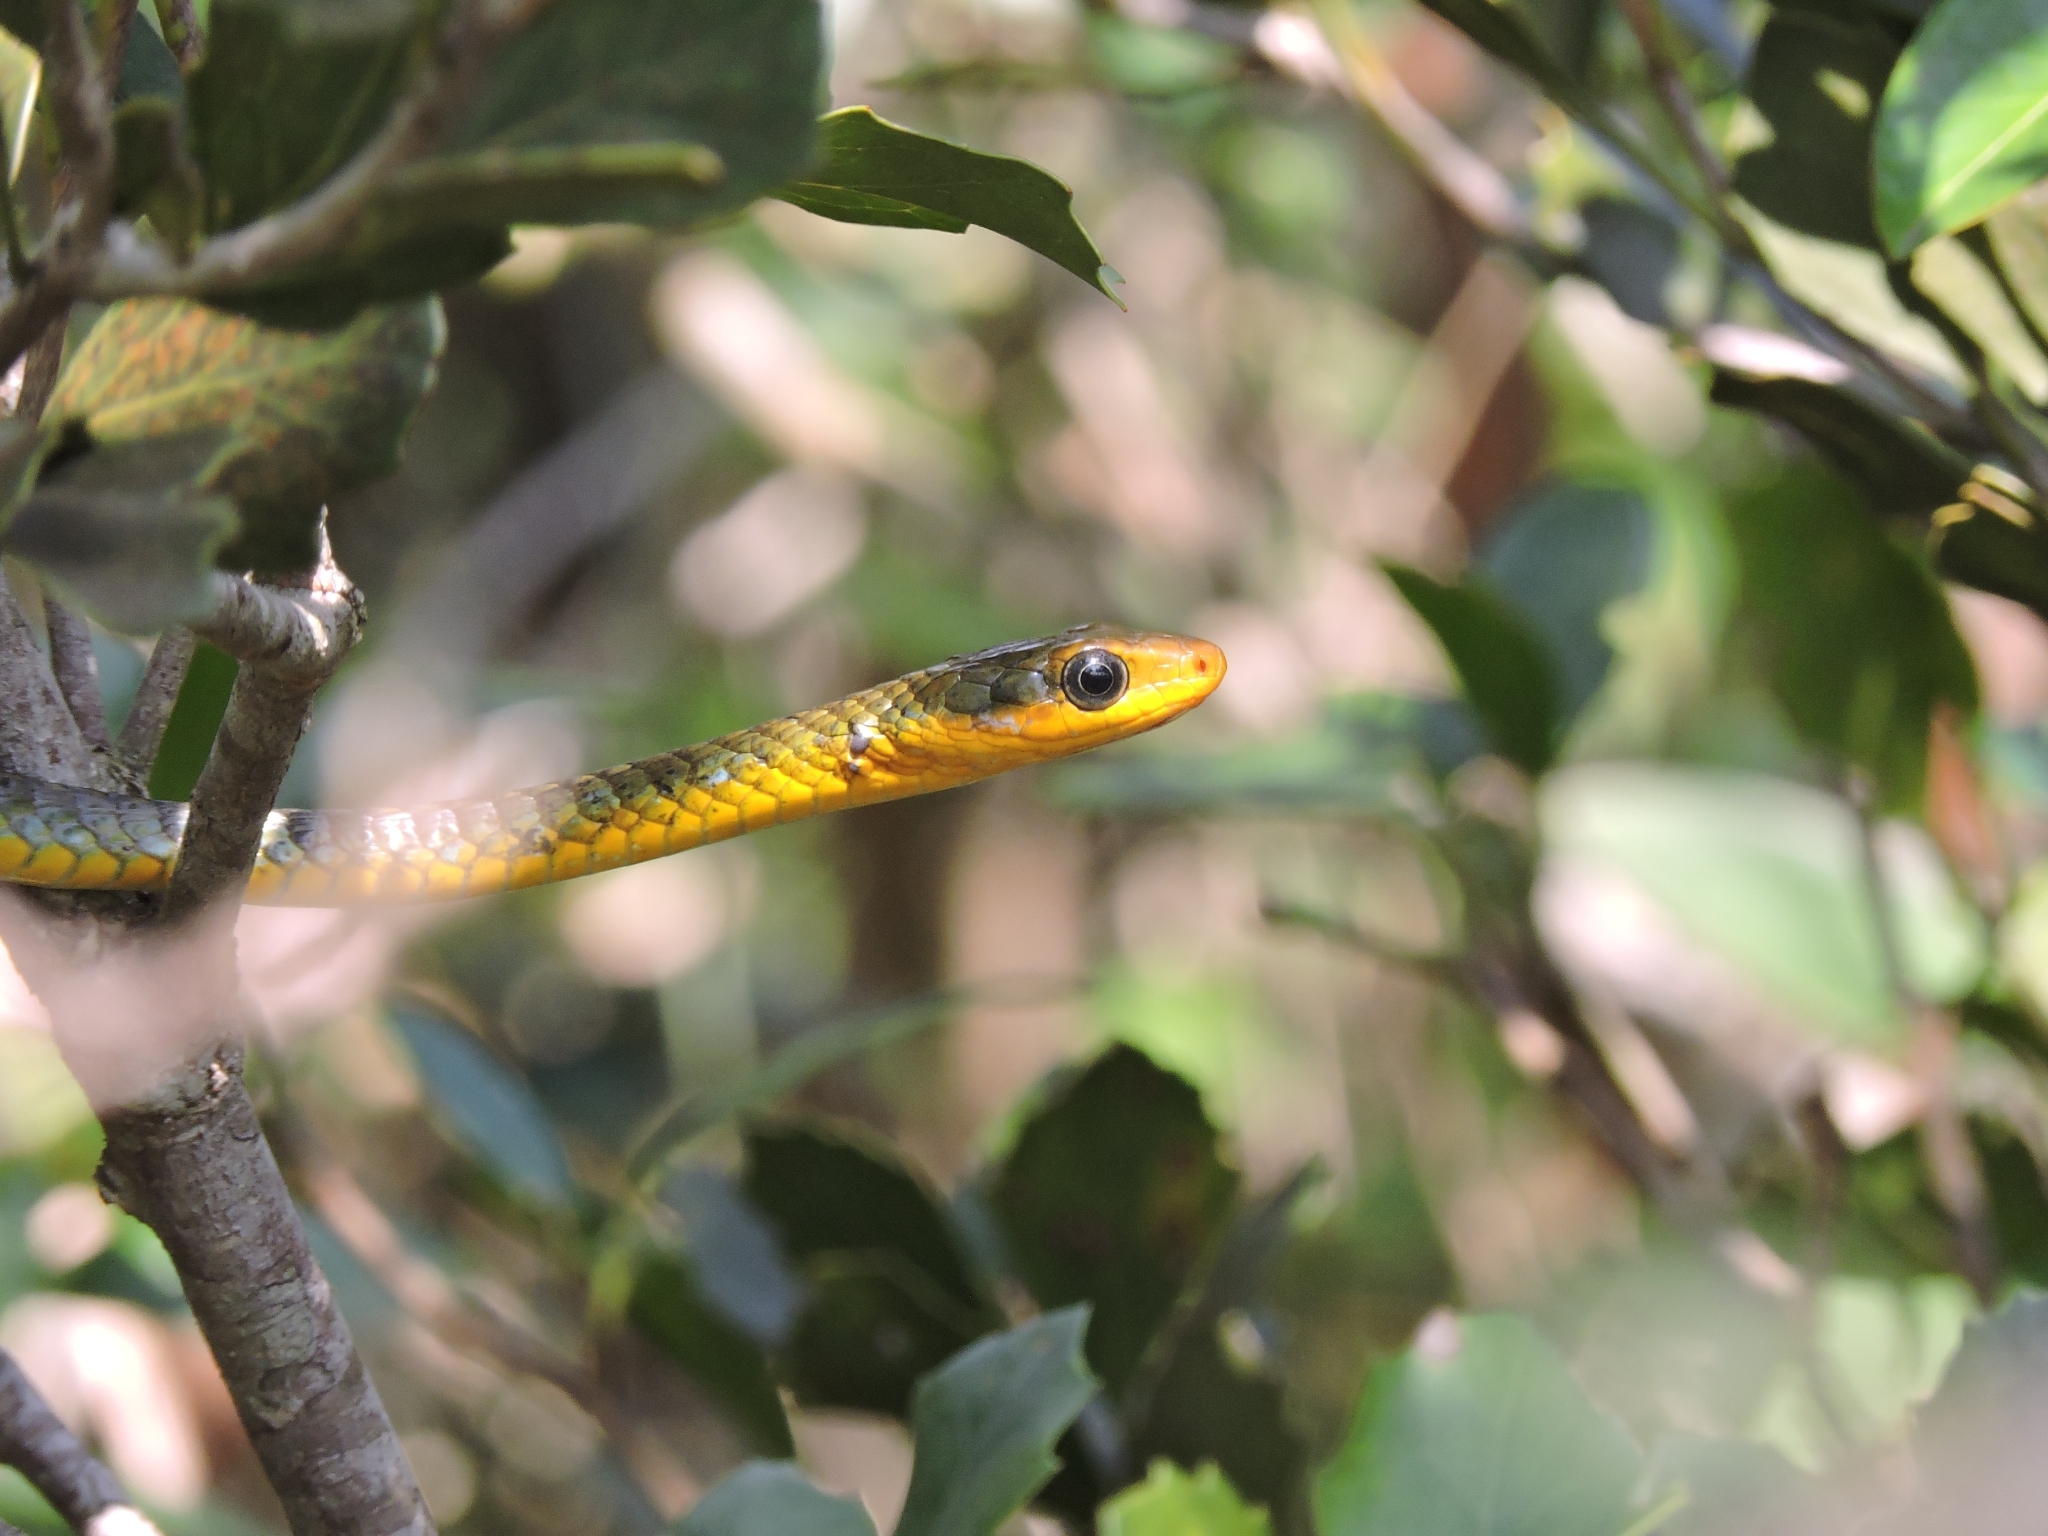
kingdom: Animalia
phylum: Chordata
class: Squamata
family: Colubridae
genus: Chironius
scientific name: Chironius exoletus
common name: Linnaeus' sipo
